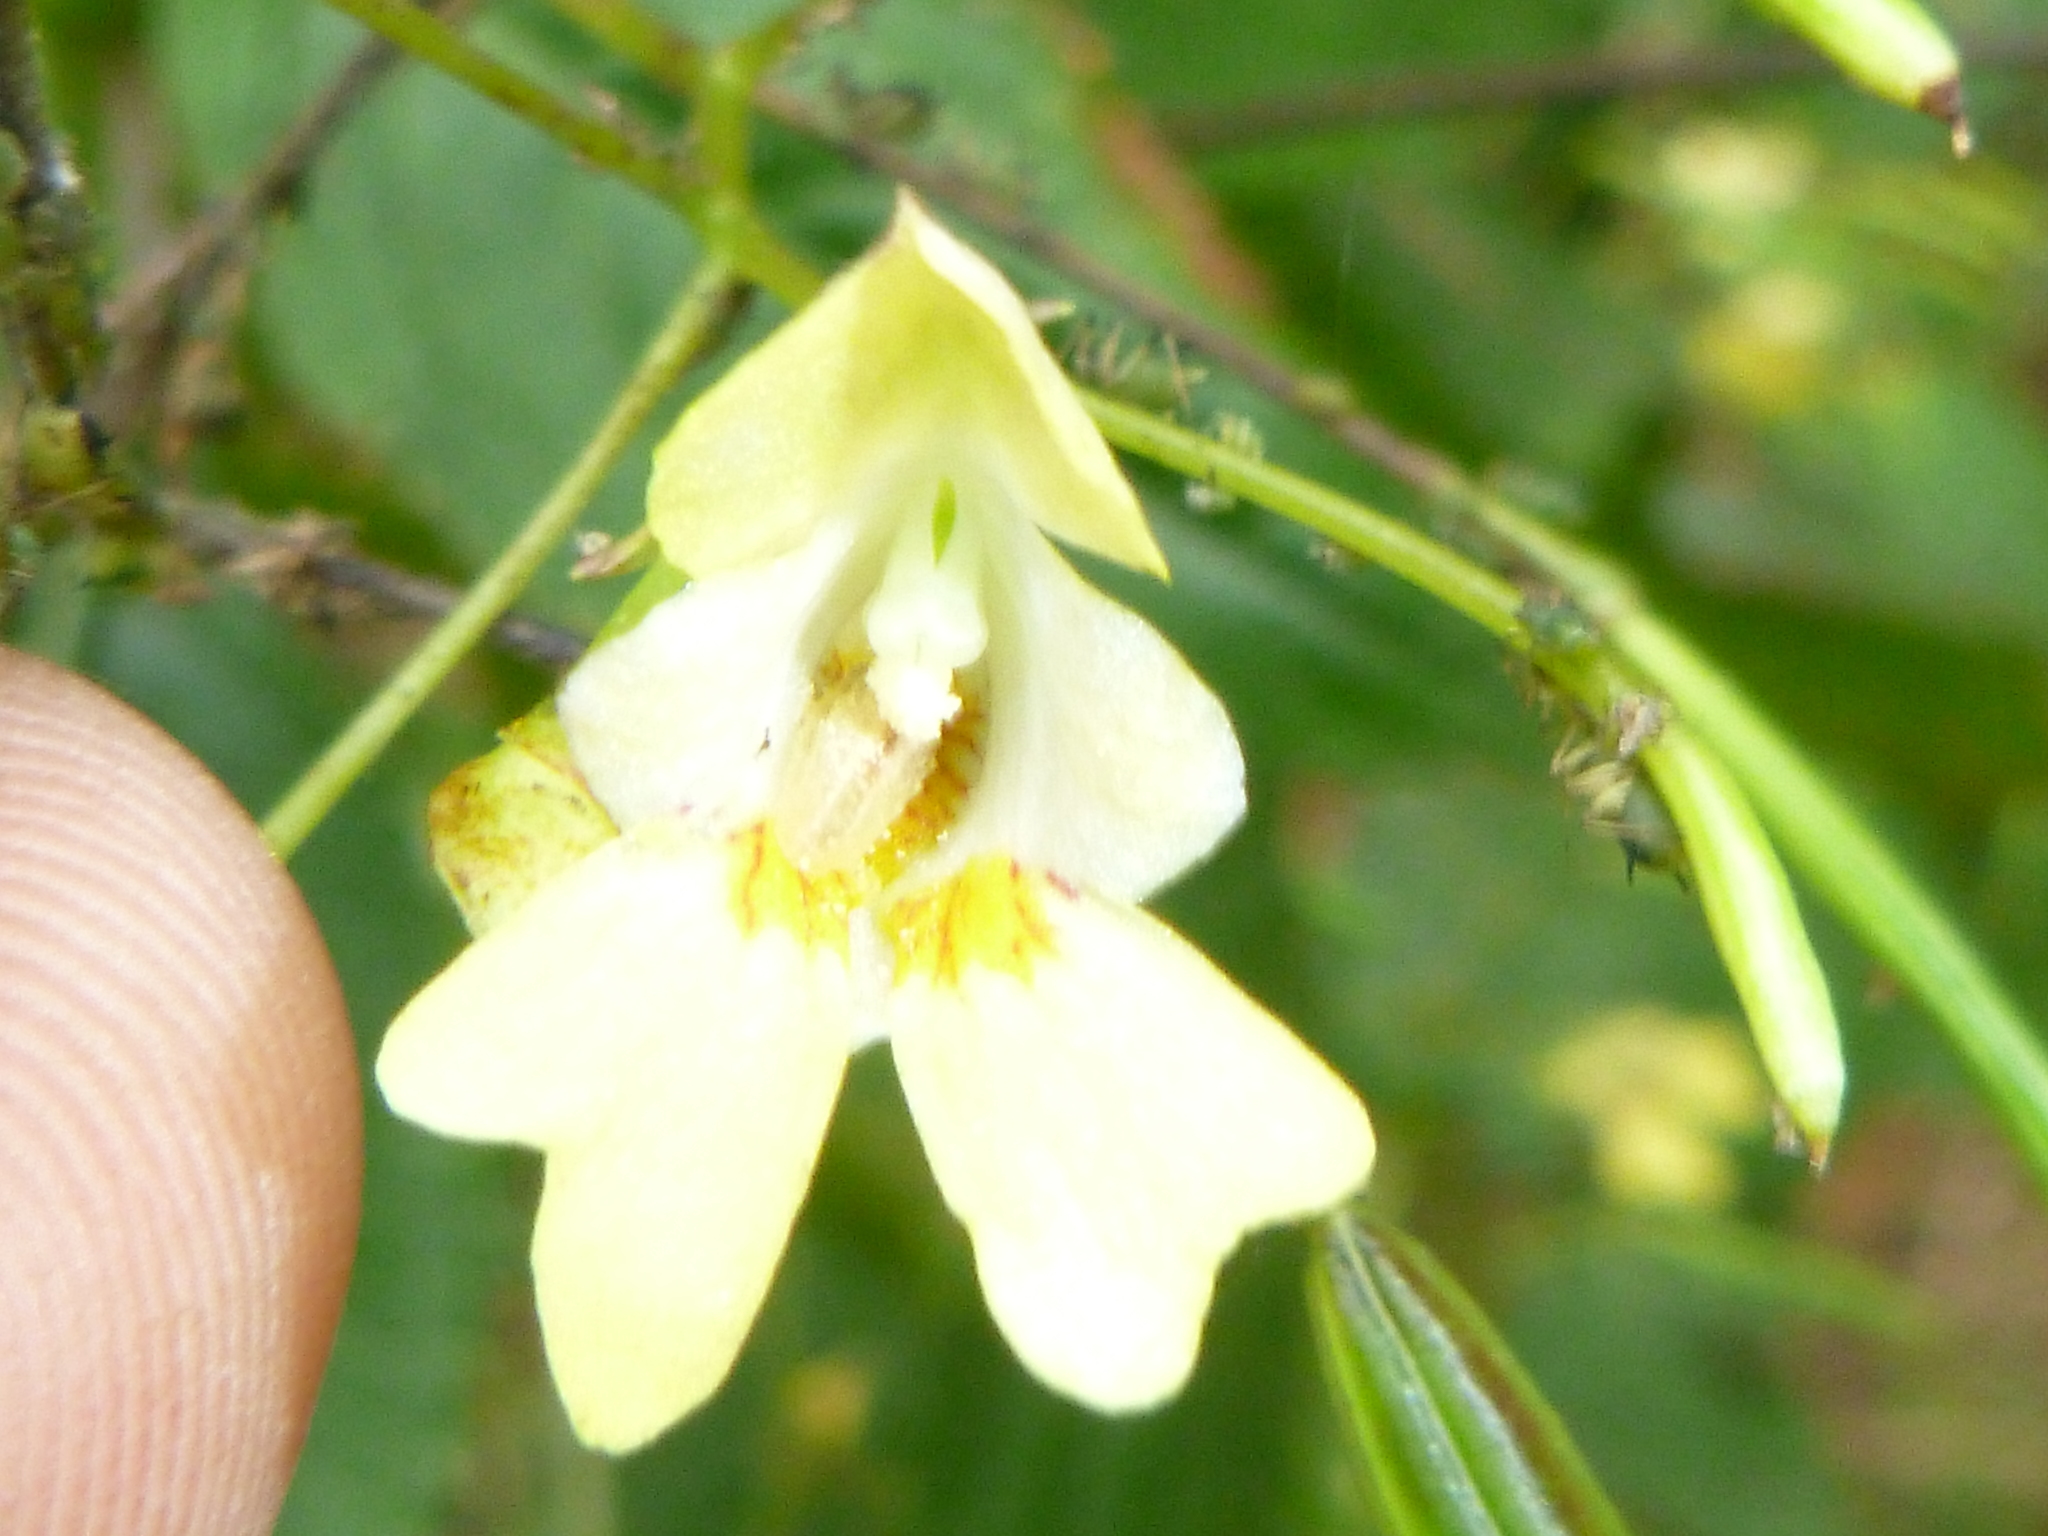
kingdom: Plantae
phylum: Tracheophyta
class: Magnoliopsida
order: Ericales
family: Balsaminaceae
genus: Impatiens
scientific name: Impatiens parviflora
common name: Small balsam
